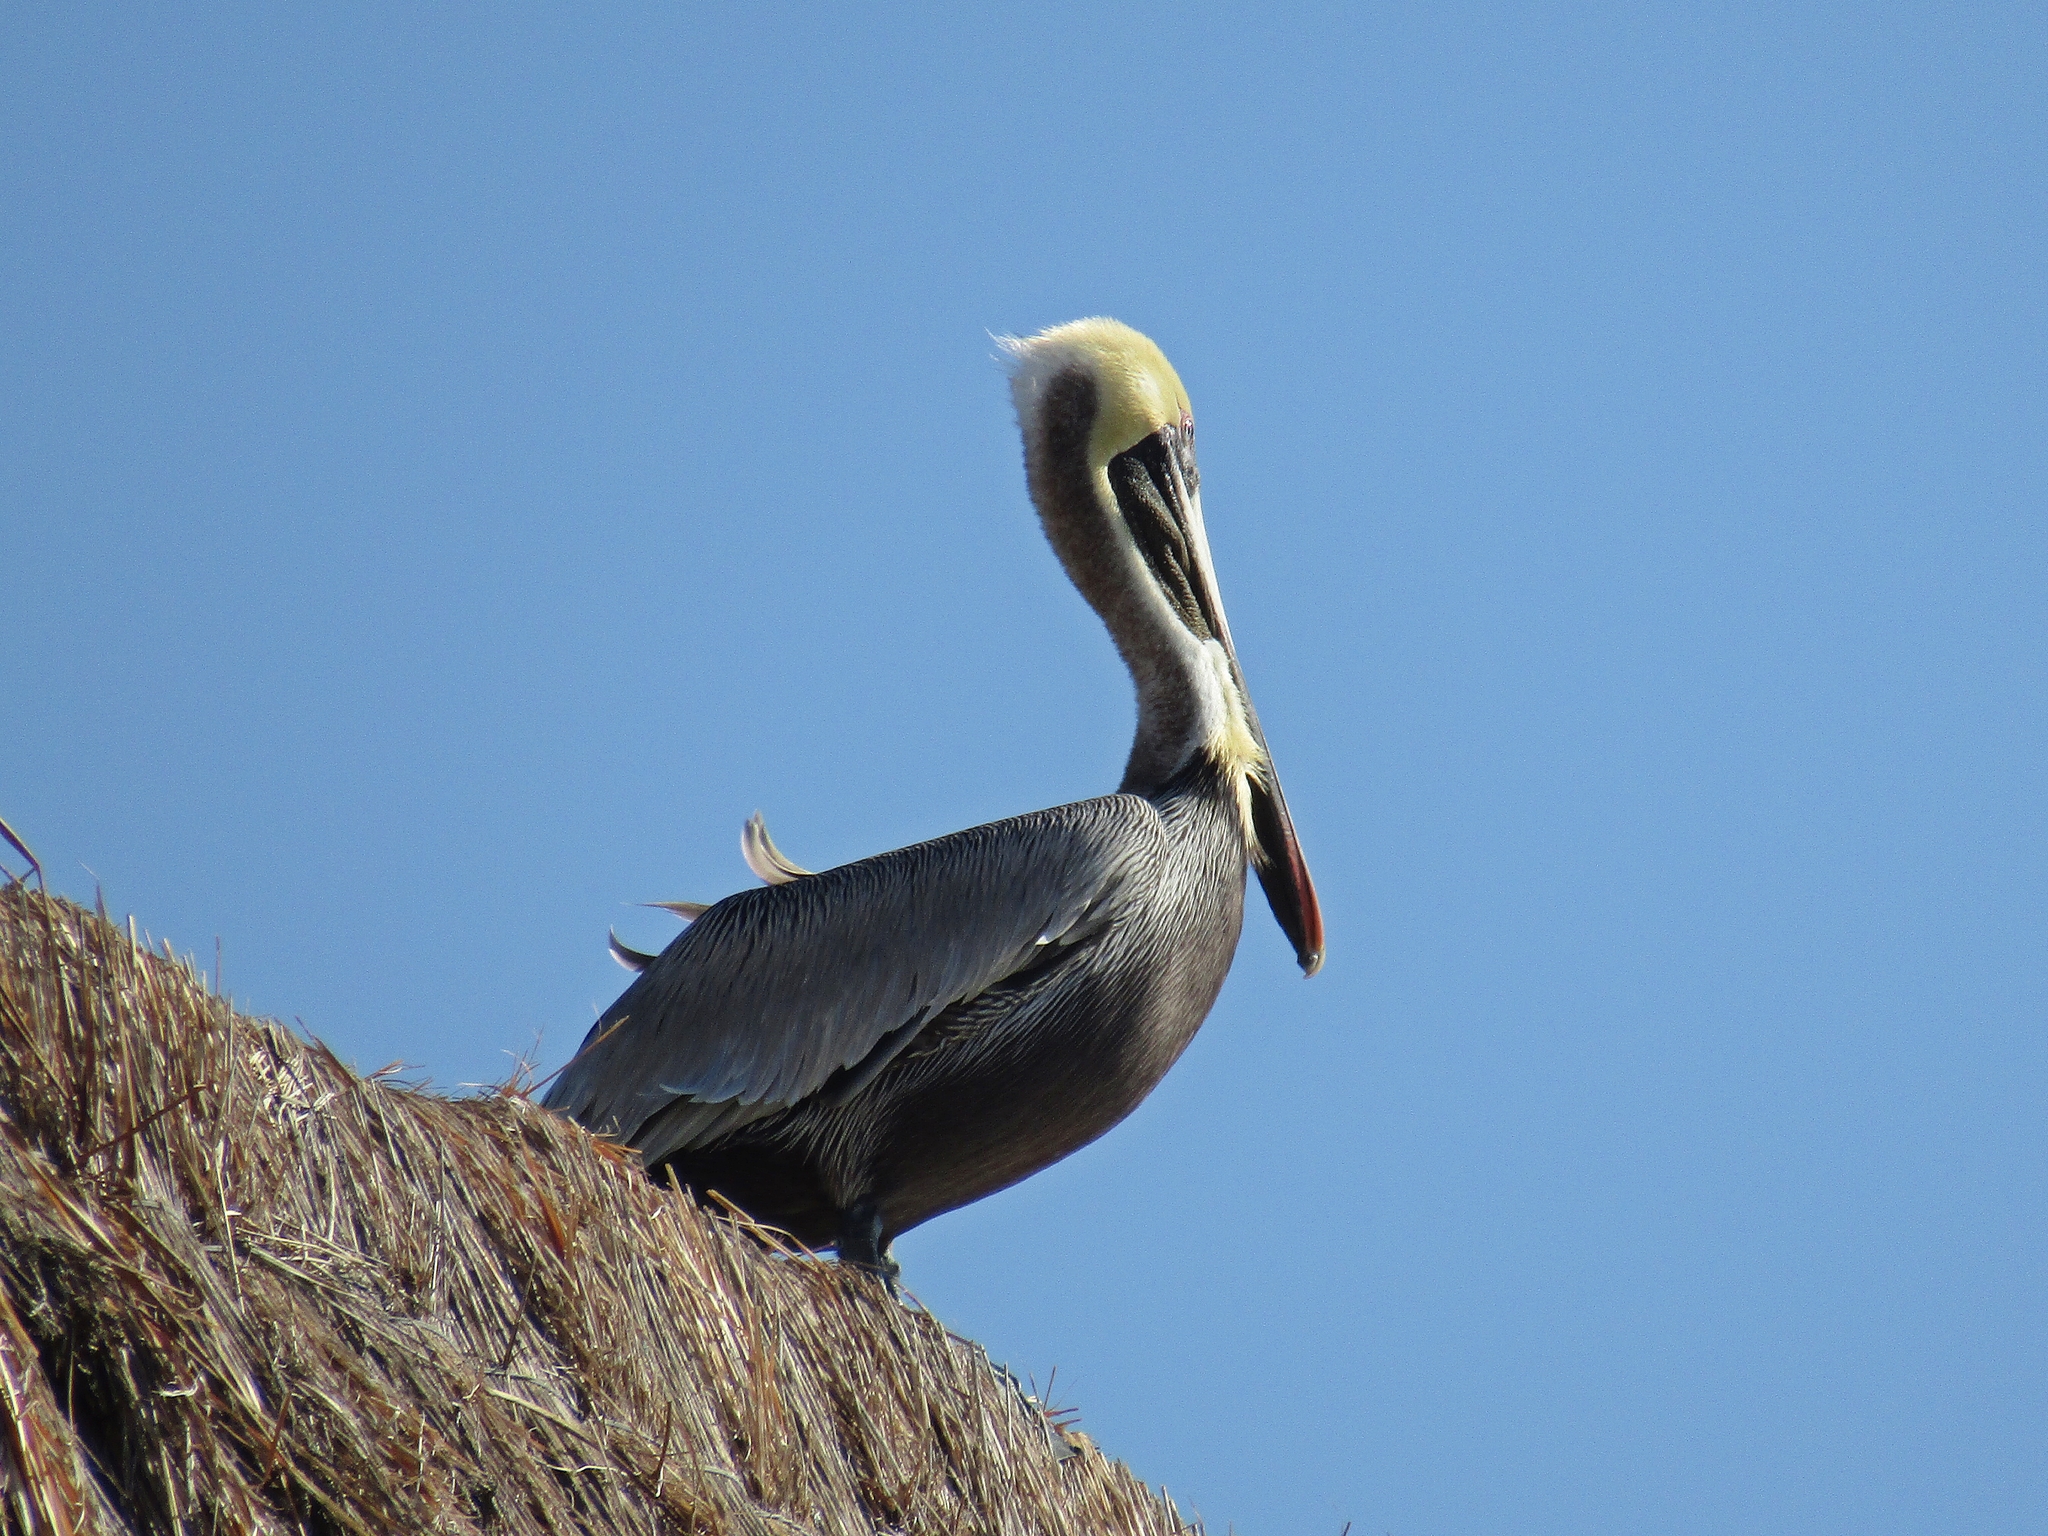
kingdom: Animalia
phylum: Chordata
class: Aves
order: Pelecaniformes
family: Pelecanidae
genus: Pelecanus
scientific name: Pelecanus occidentalis
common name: Brown pelican
